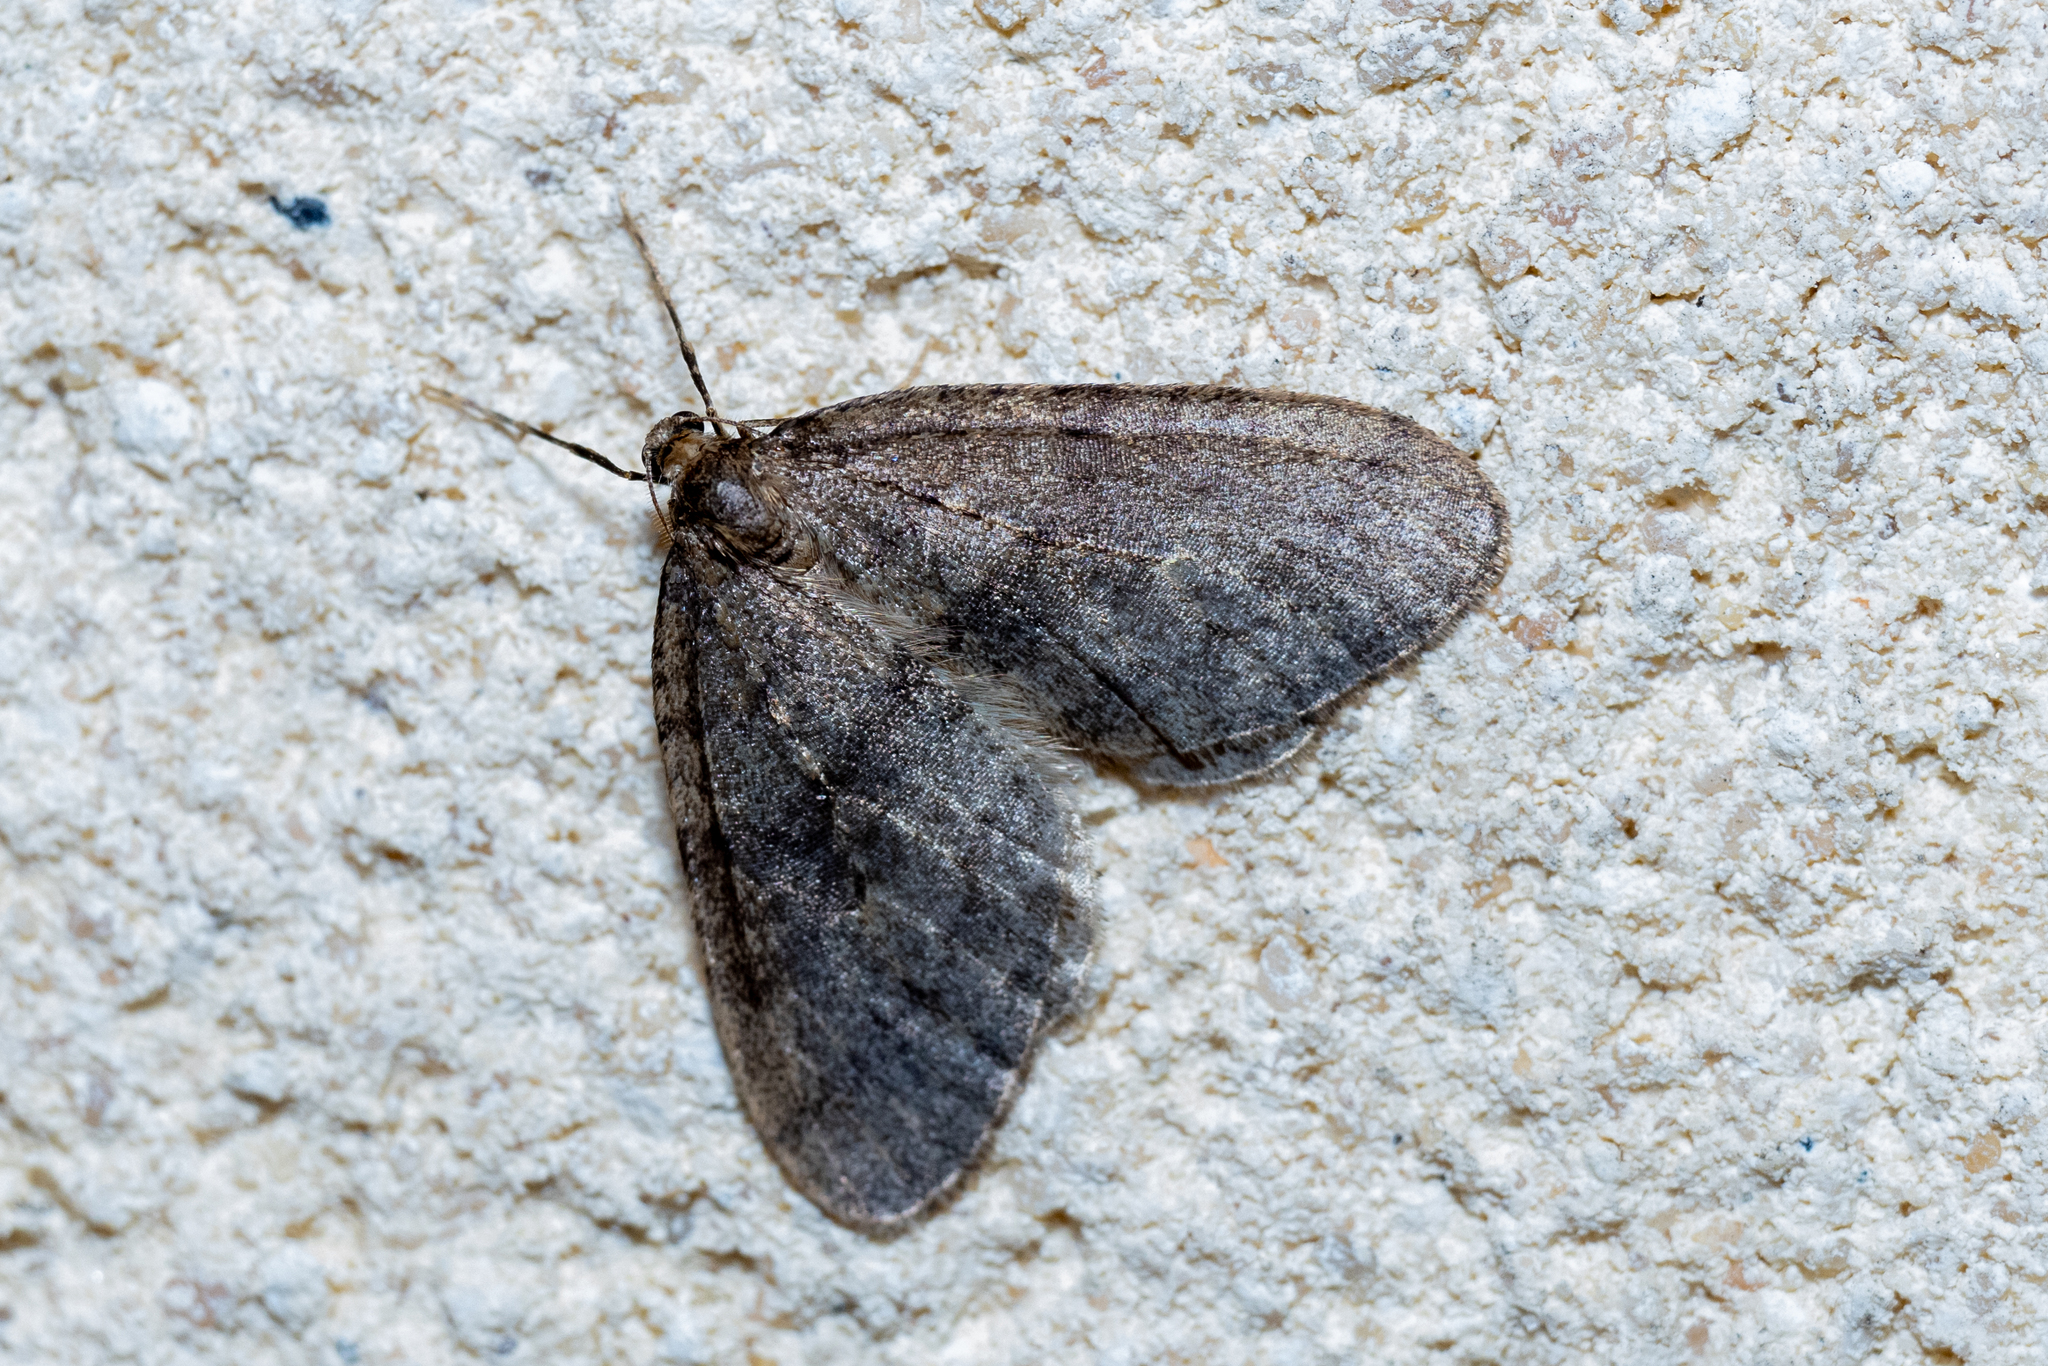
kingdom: Animalia
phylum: Arthropoda
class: Insecta
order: Lepidoptera
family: Geometridae
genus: Operophtera
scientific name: Operophtera brumata
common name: Winter moth
